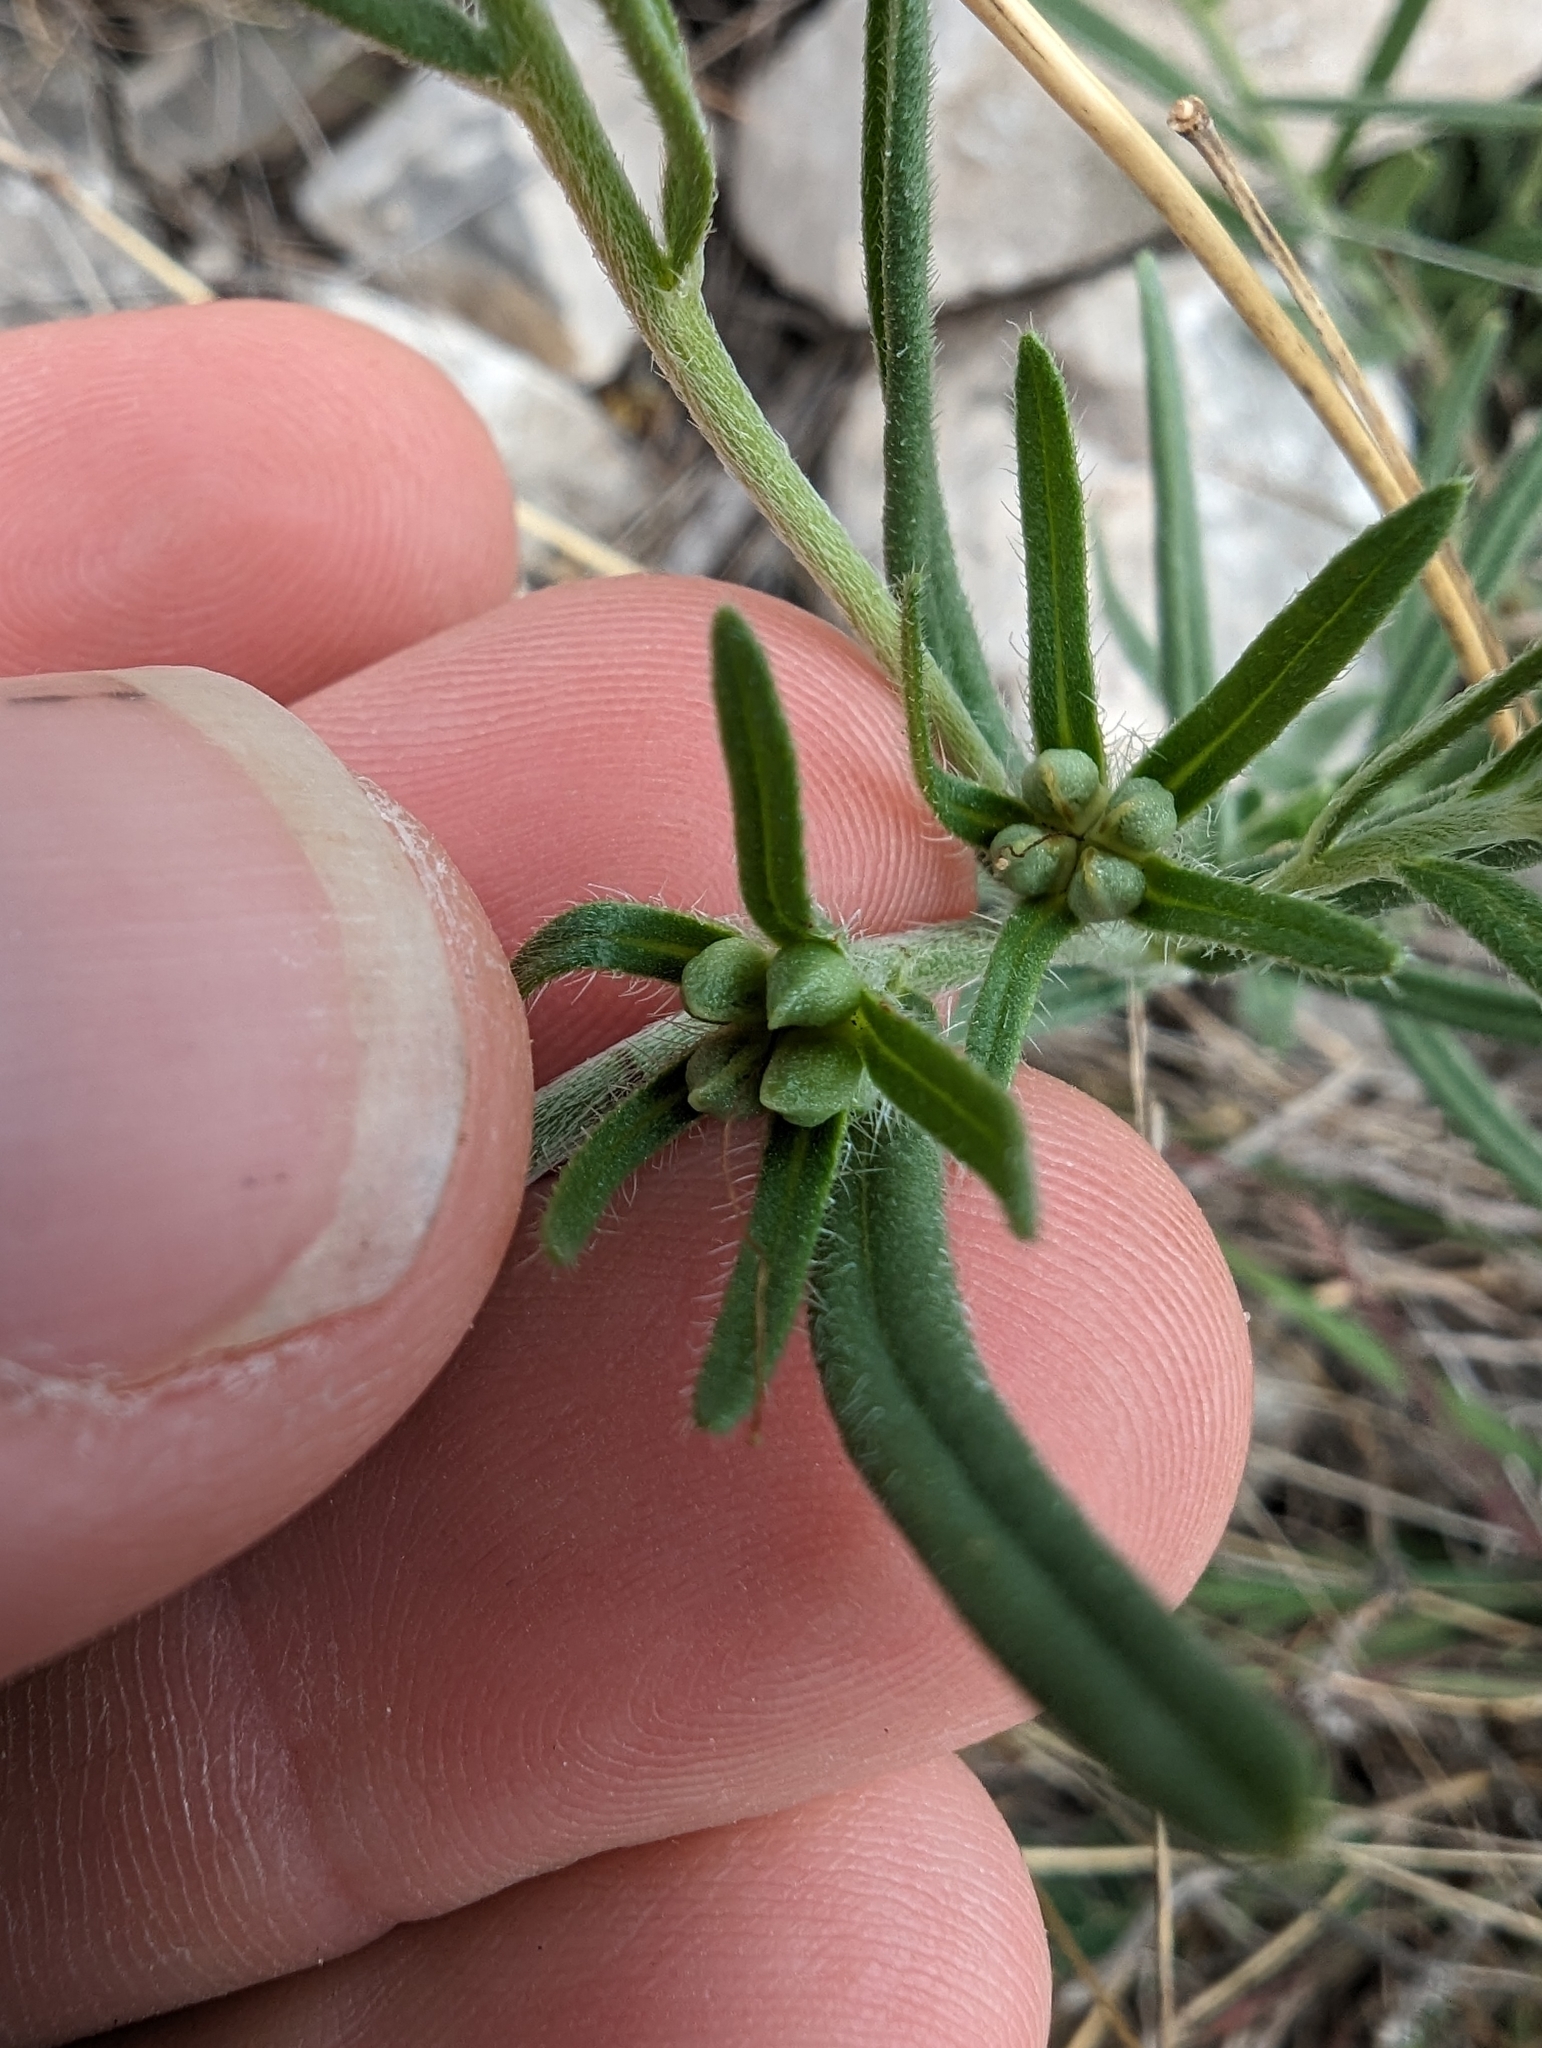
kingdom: Plantae
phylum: Tracheophyta
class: Magnoliopsida
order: Boraginales
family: Boraginaceae
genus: Lithospermum
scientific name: Lithospermum mirabile
